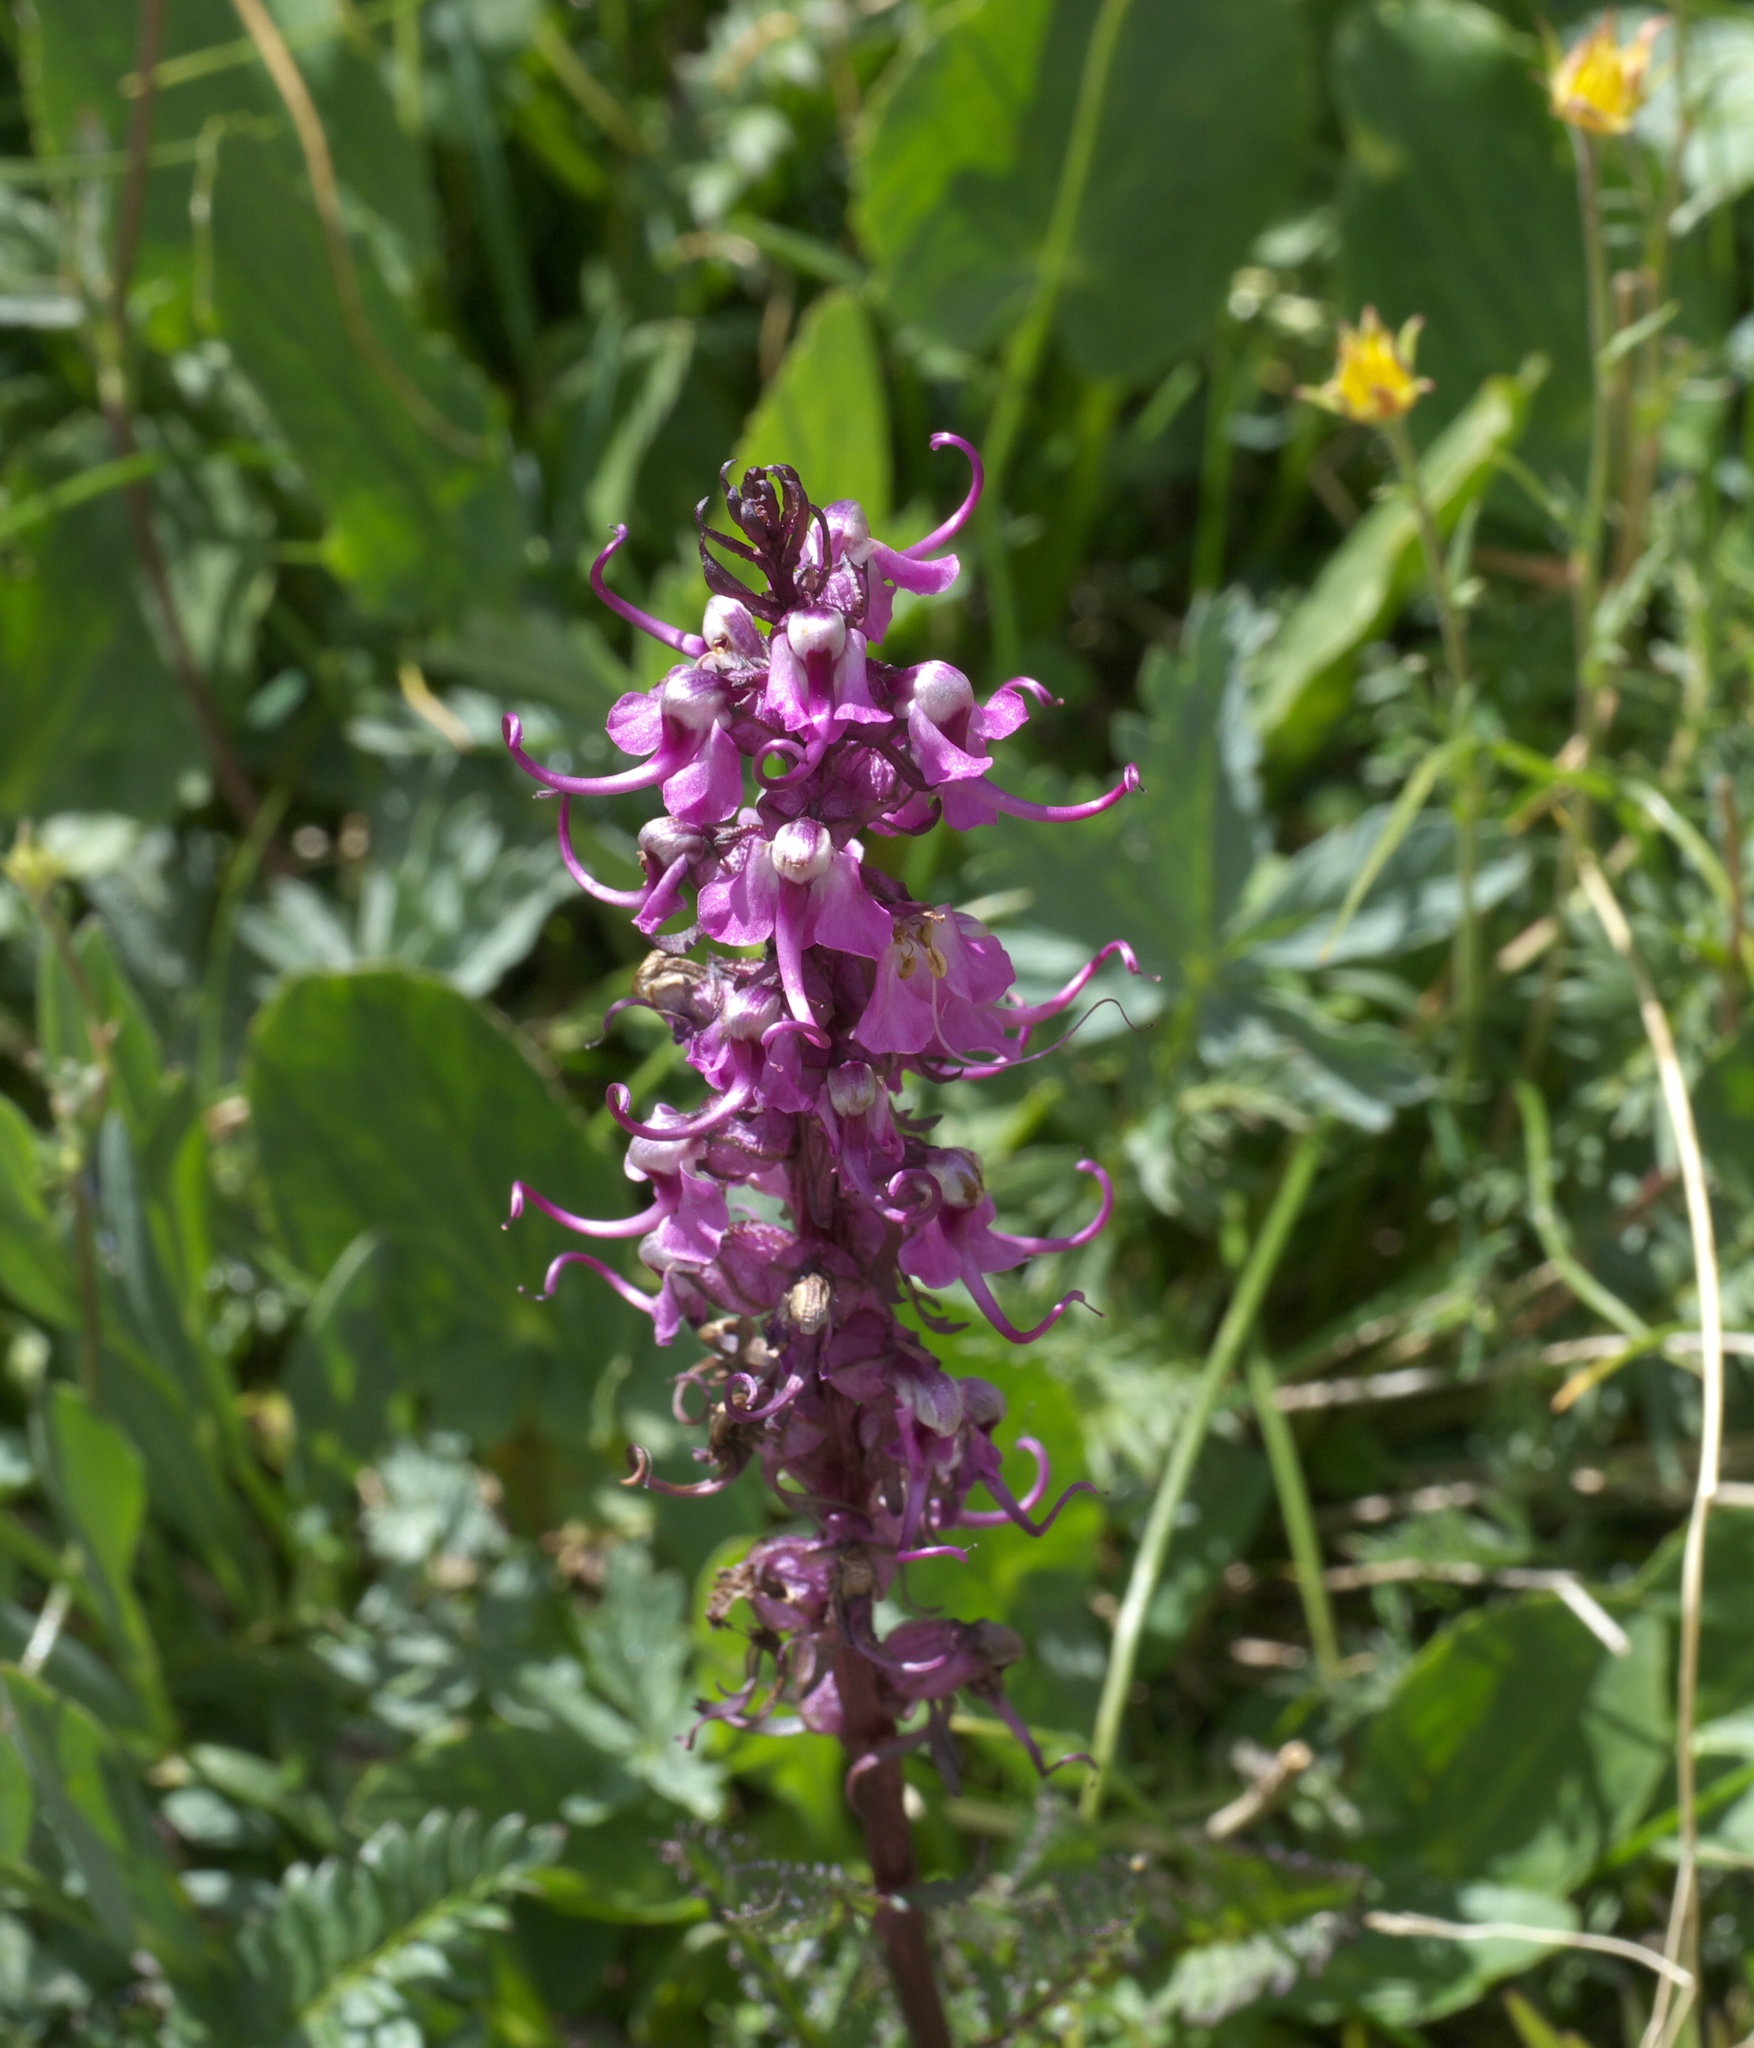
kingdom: Plantae
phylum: Tracheophyta
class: Magnoliopsida
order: Lamiales
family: Orobanchaceae
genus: Pedicularis
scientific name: Pedicularis groenlandica
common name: Elephant's-head
